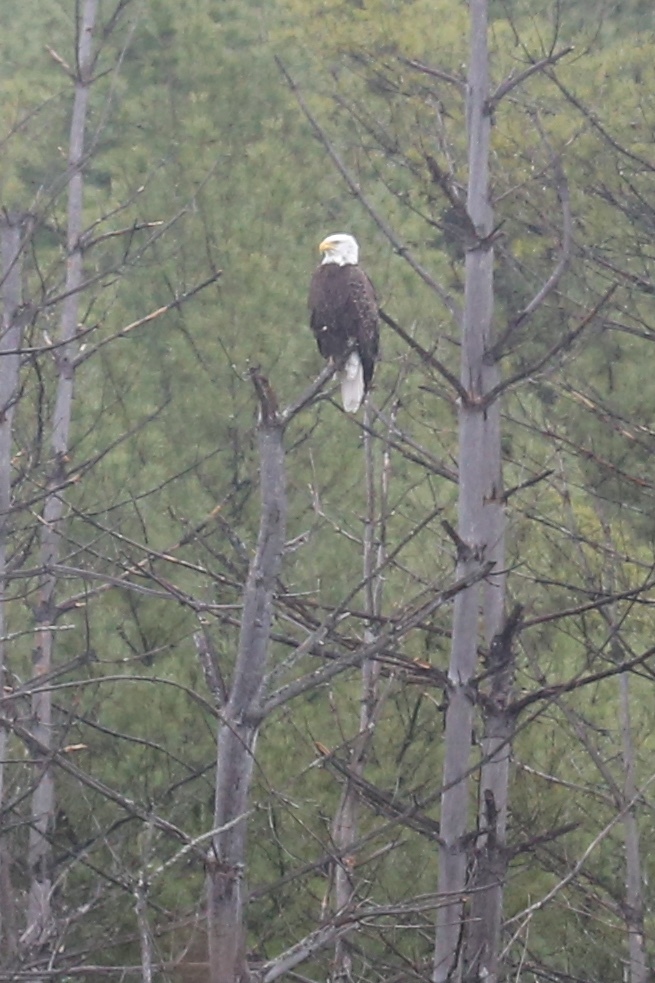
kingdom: Animalia
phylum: Chordata
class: Aves
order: Accipitriformes
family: Accipitridae
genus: Haliaeetus
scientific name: Haliaeetus leucocephalus
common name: Bald eagle
